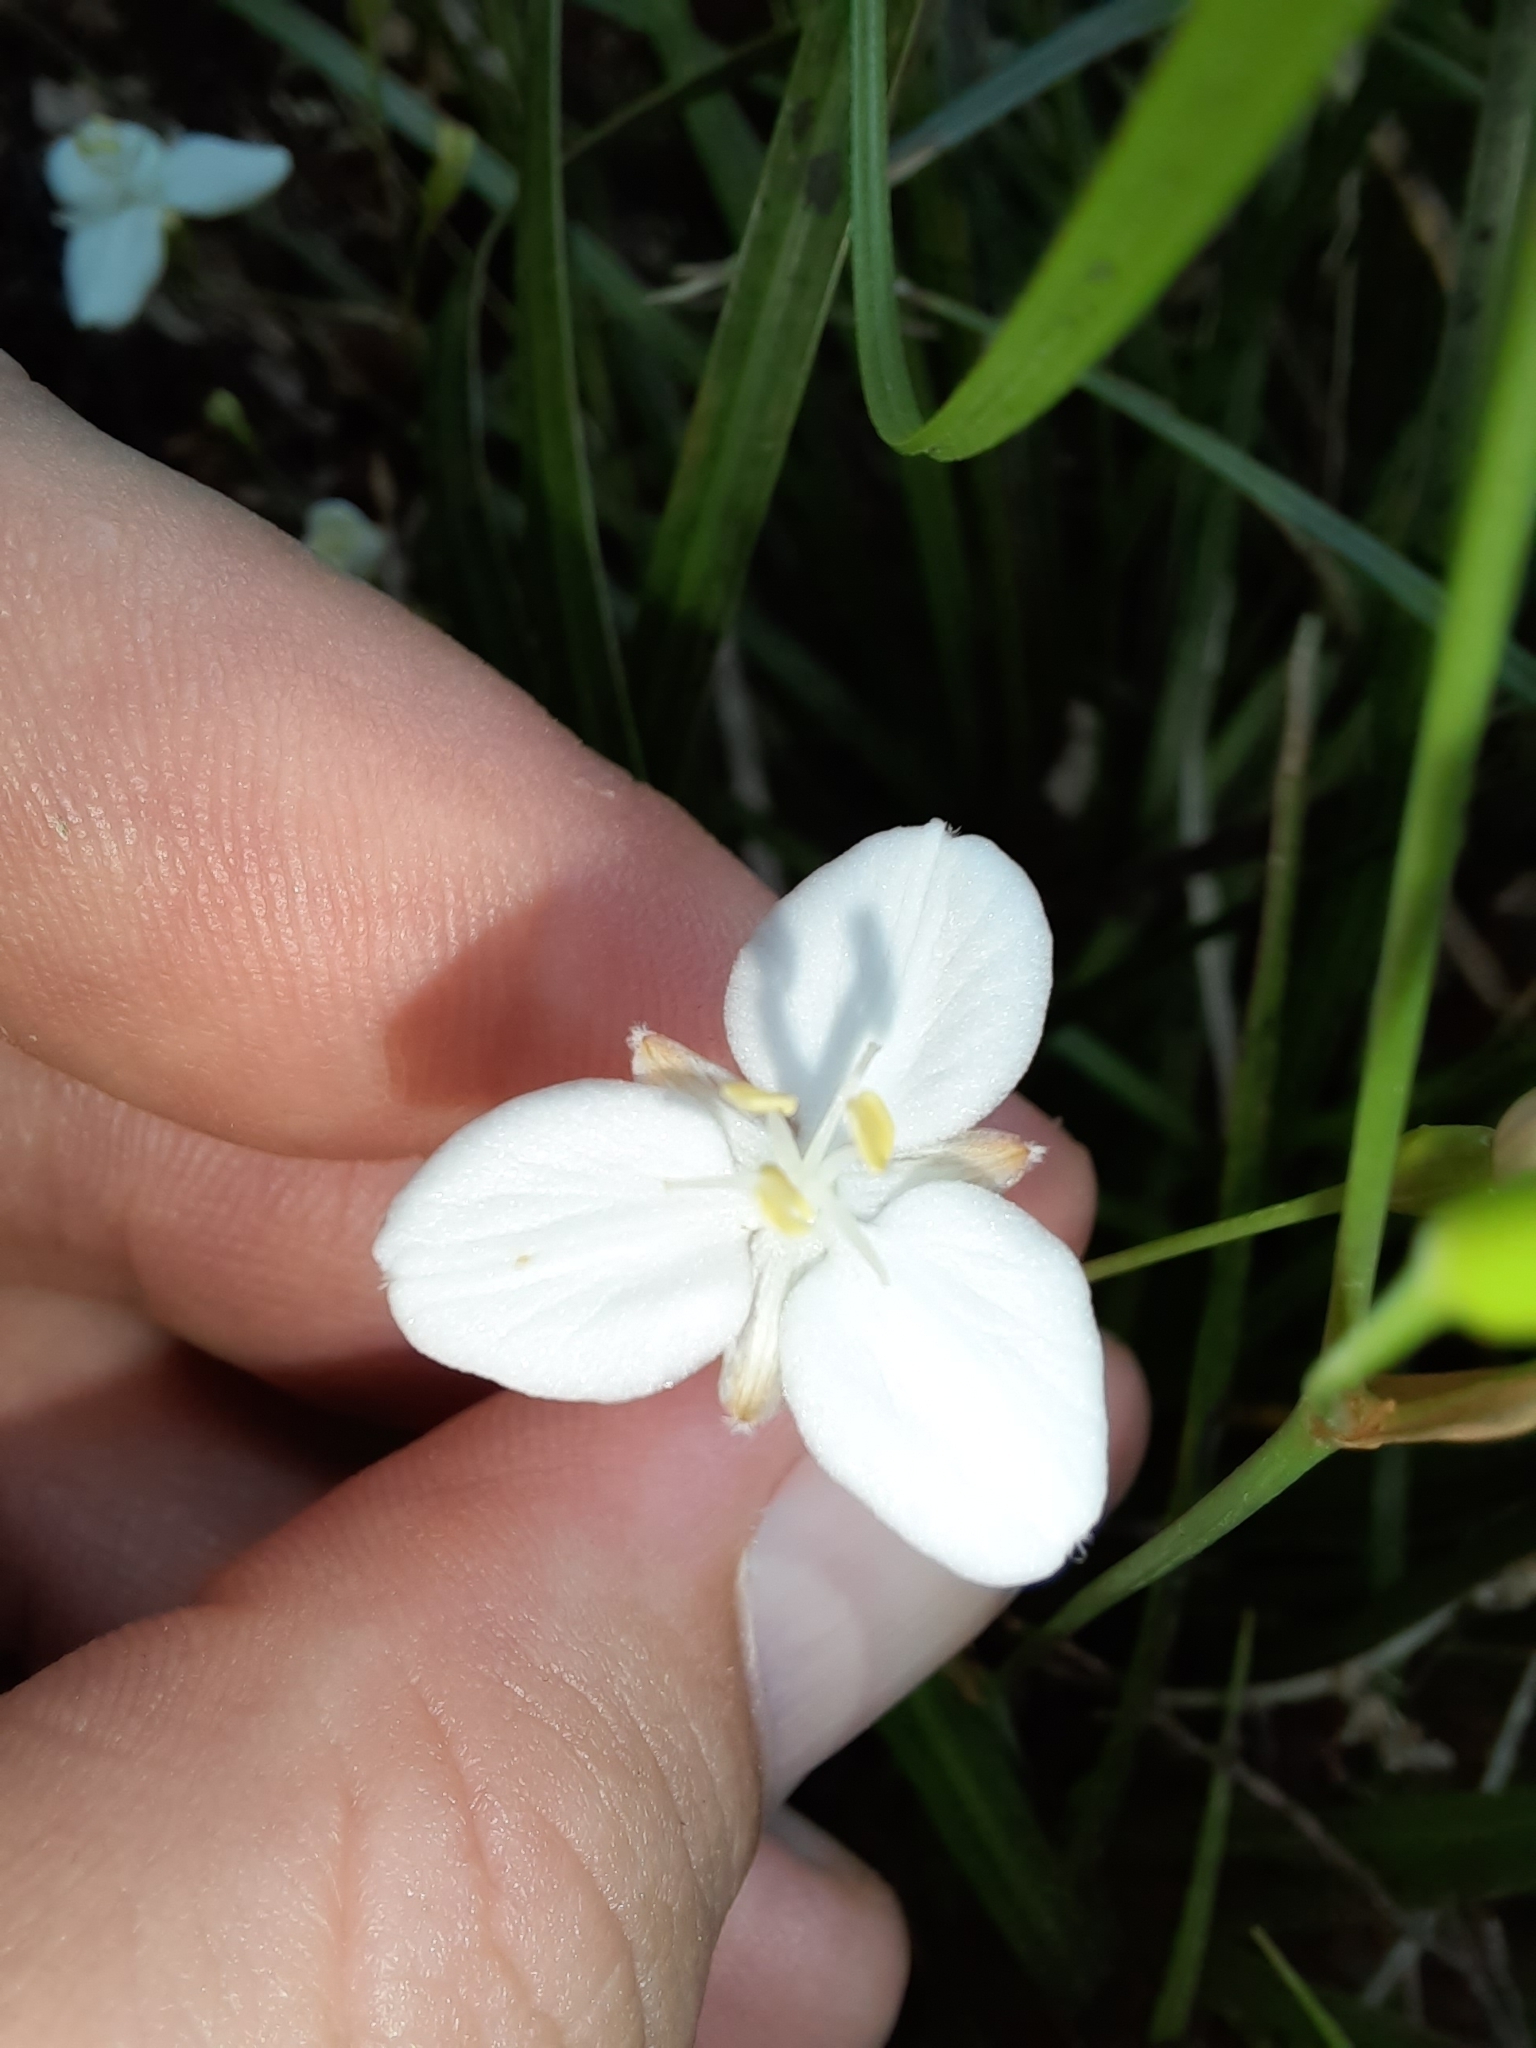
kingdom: Plantae
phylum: Tracheophyta
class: Liliopsida
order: Asparagales
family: Iridaceae
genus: Libertia
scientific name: Libertia ixioides
